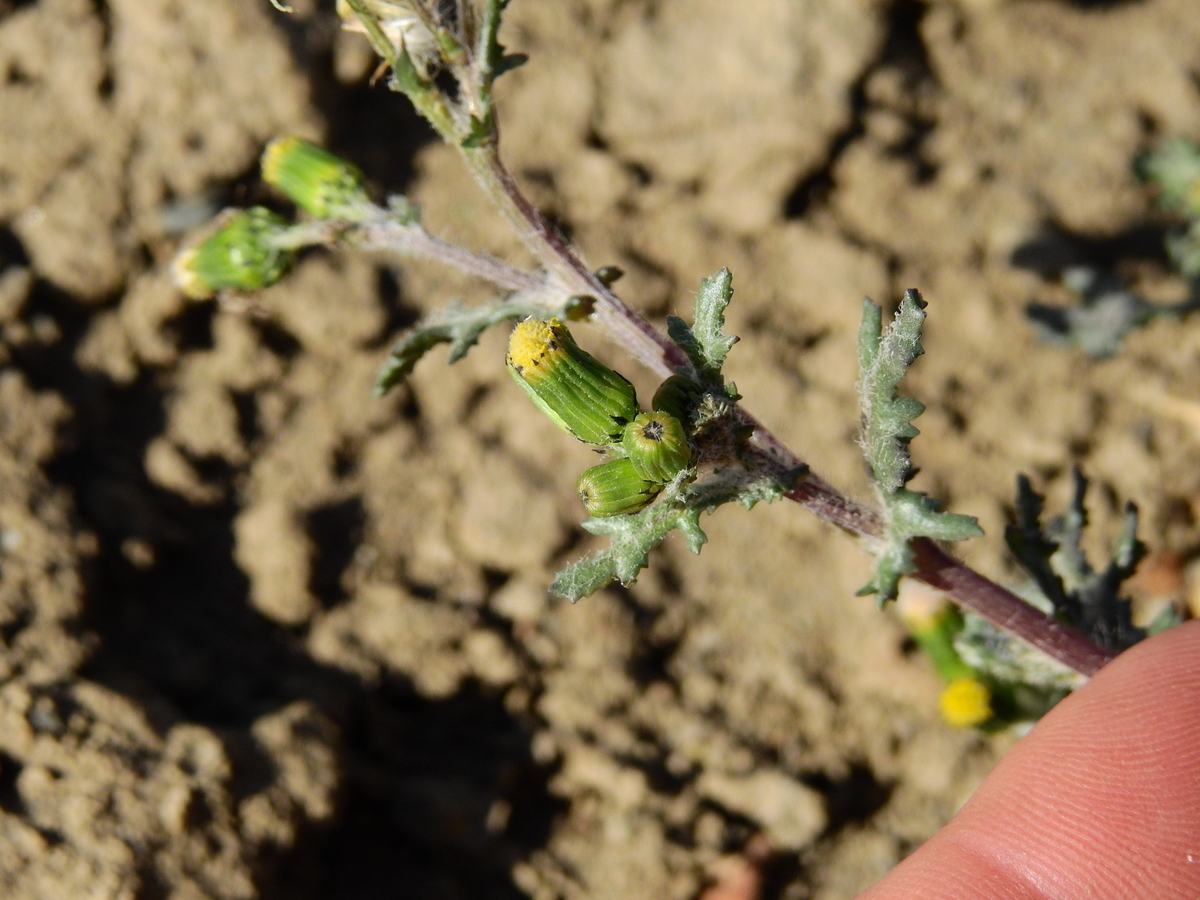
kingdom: Plantae
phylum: Tracheophyta
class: Magnoliopsida
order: Asterales
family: Asteraceae
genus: Senecio
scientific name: Senecio vulgaris
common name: Old-man-in-the-spring
